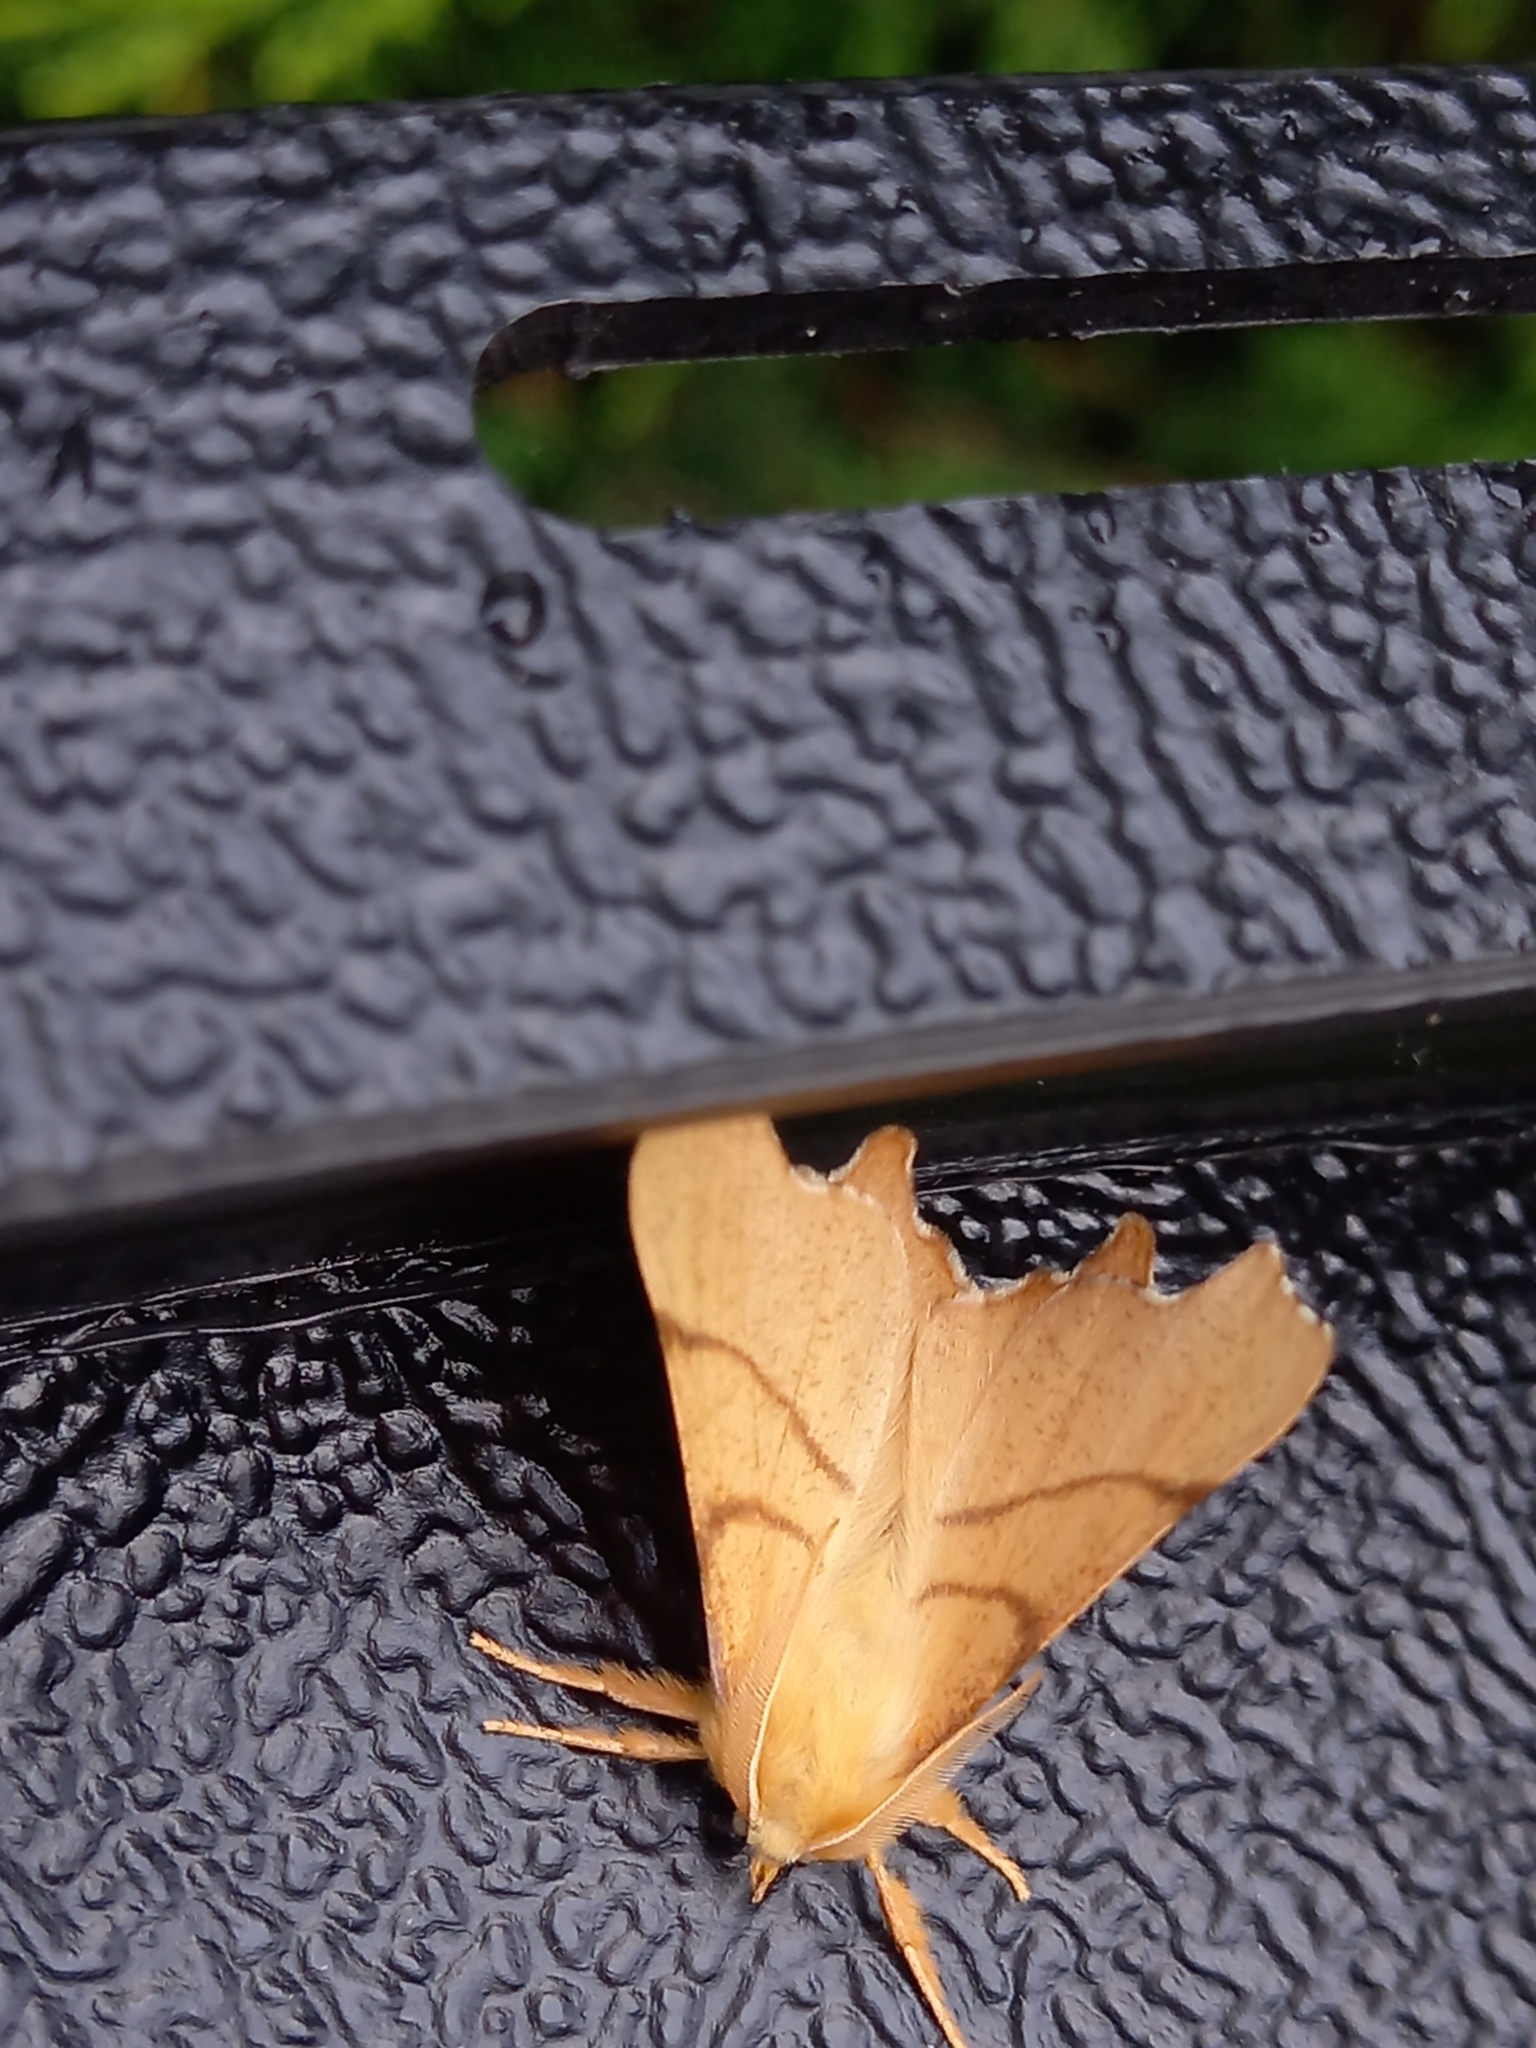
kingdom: Animalia
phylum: Arthropoda
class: Insecta
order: Lepidoptera
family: Geometridae
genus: Ennomos
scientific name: Ennomos erosaria
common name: September thorn
